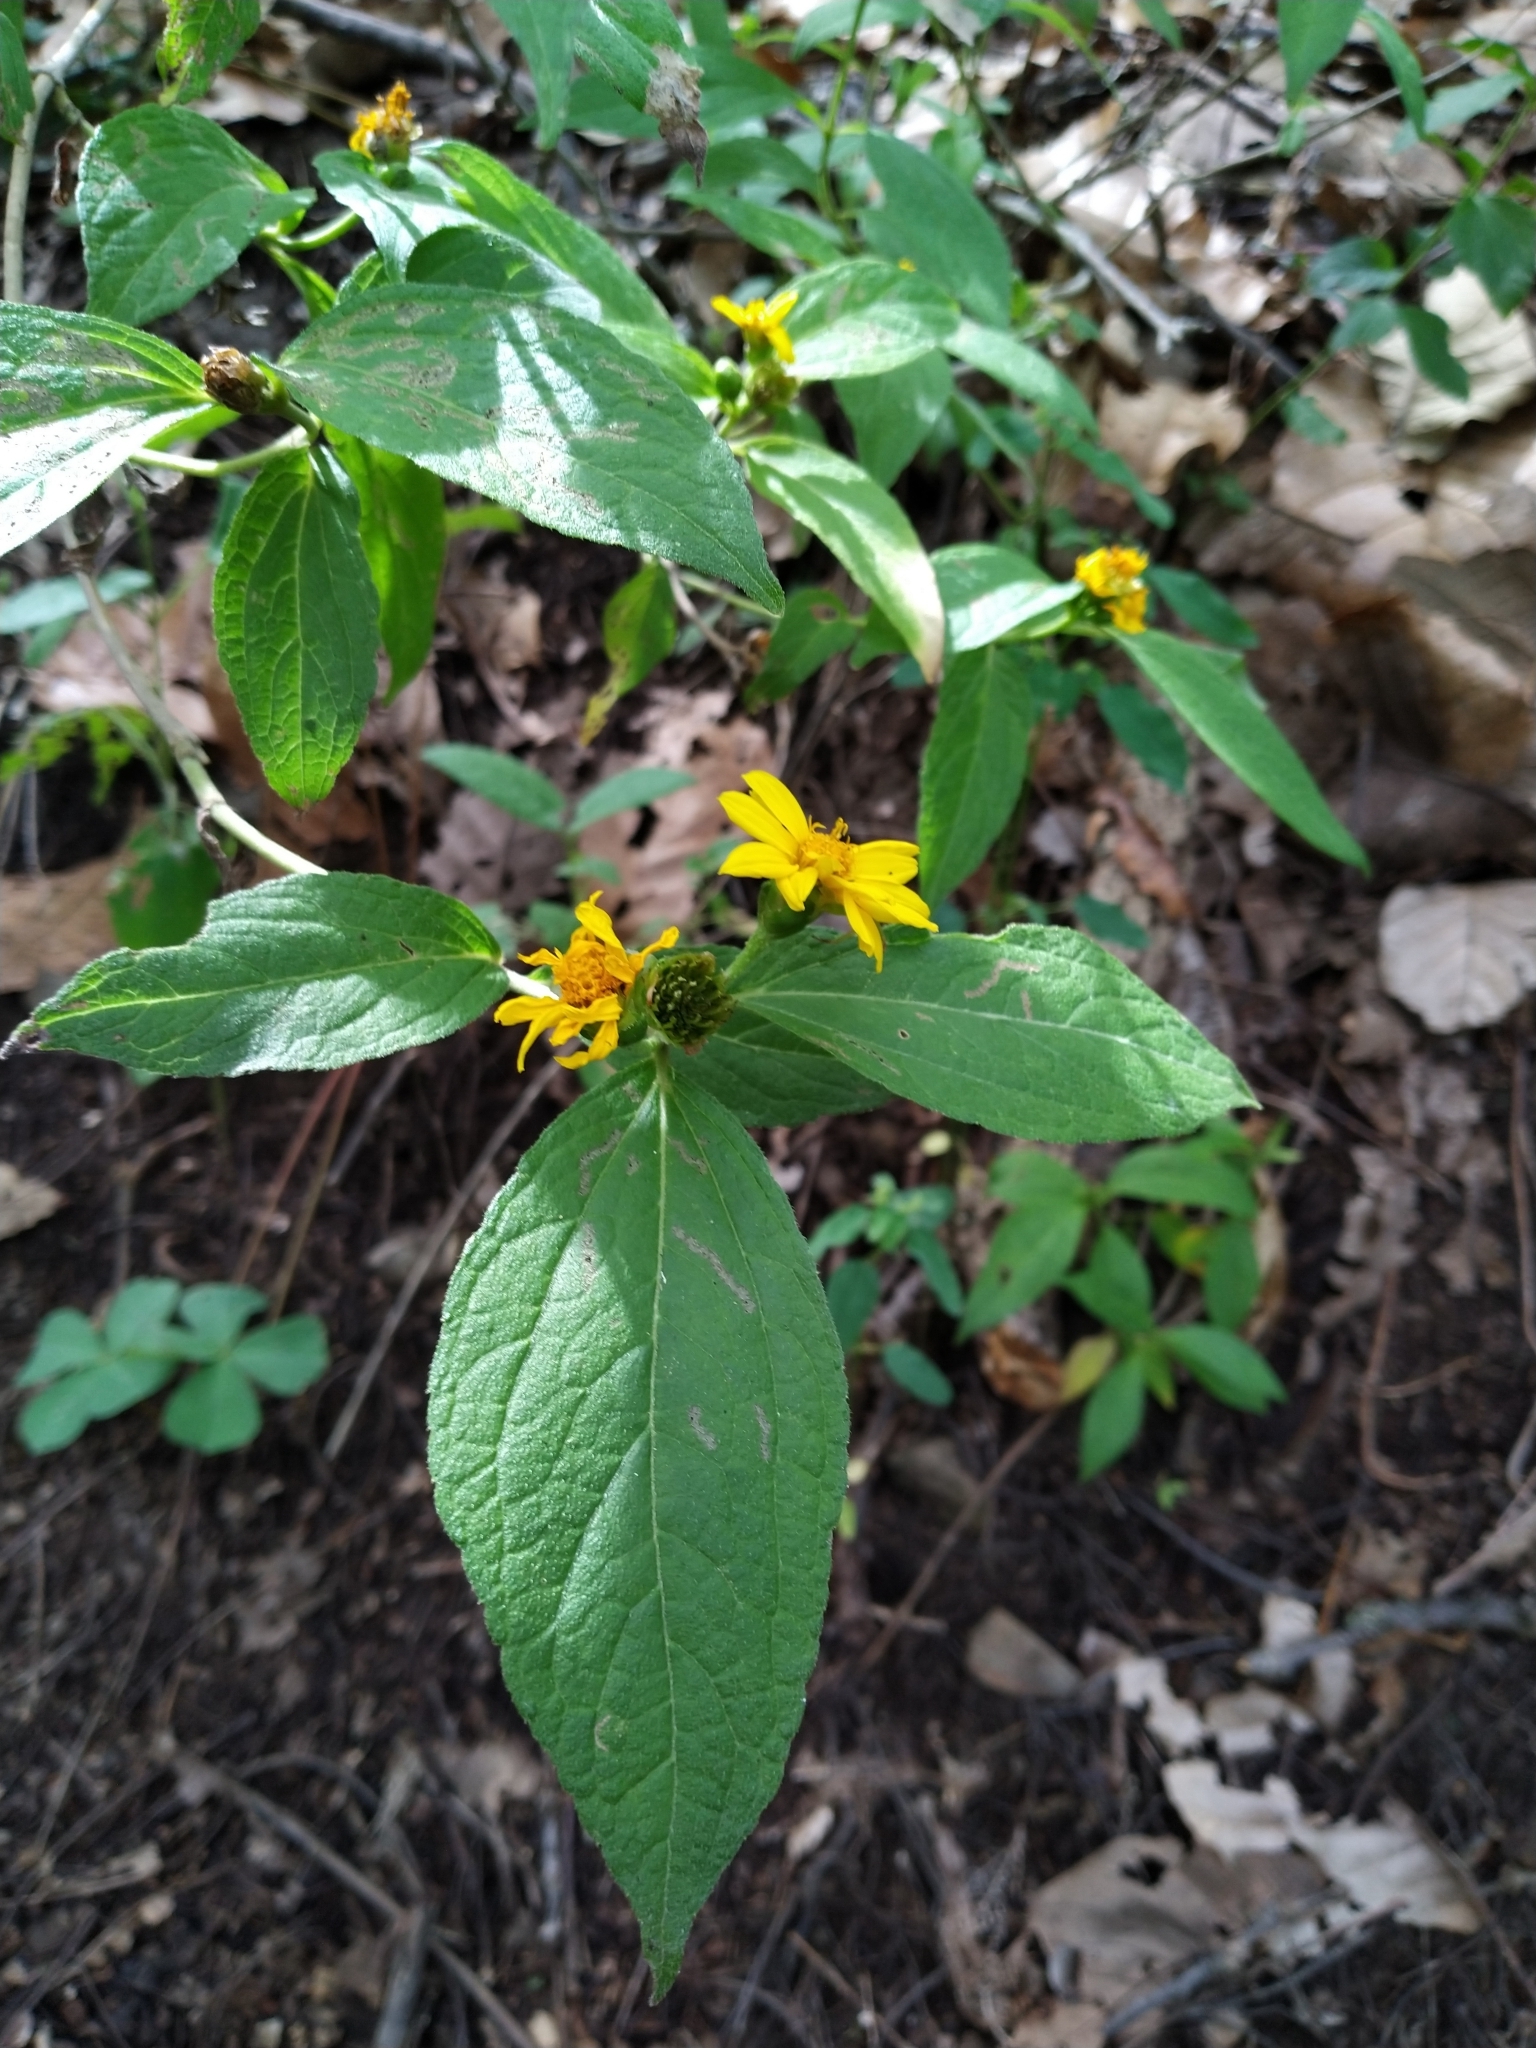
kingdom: Plantae
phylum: Tracheophyta
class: Magnoliopsida
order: Asterales
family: Asteraceae
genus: Melampodium
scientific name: Melampodium divaricatum
